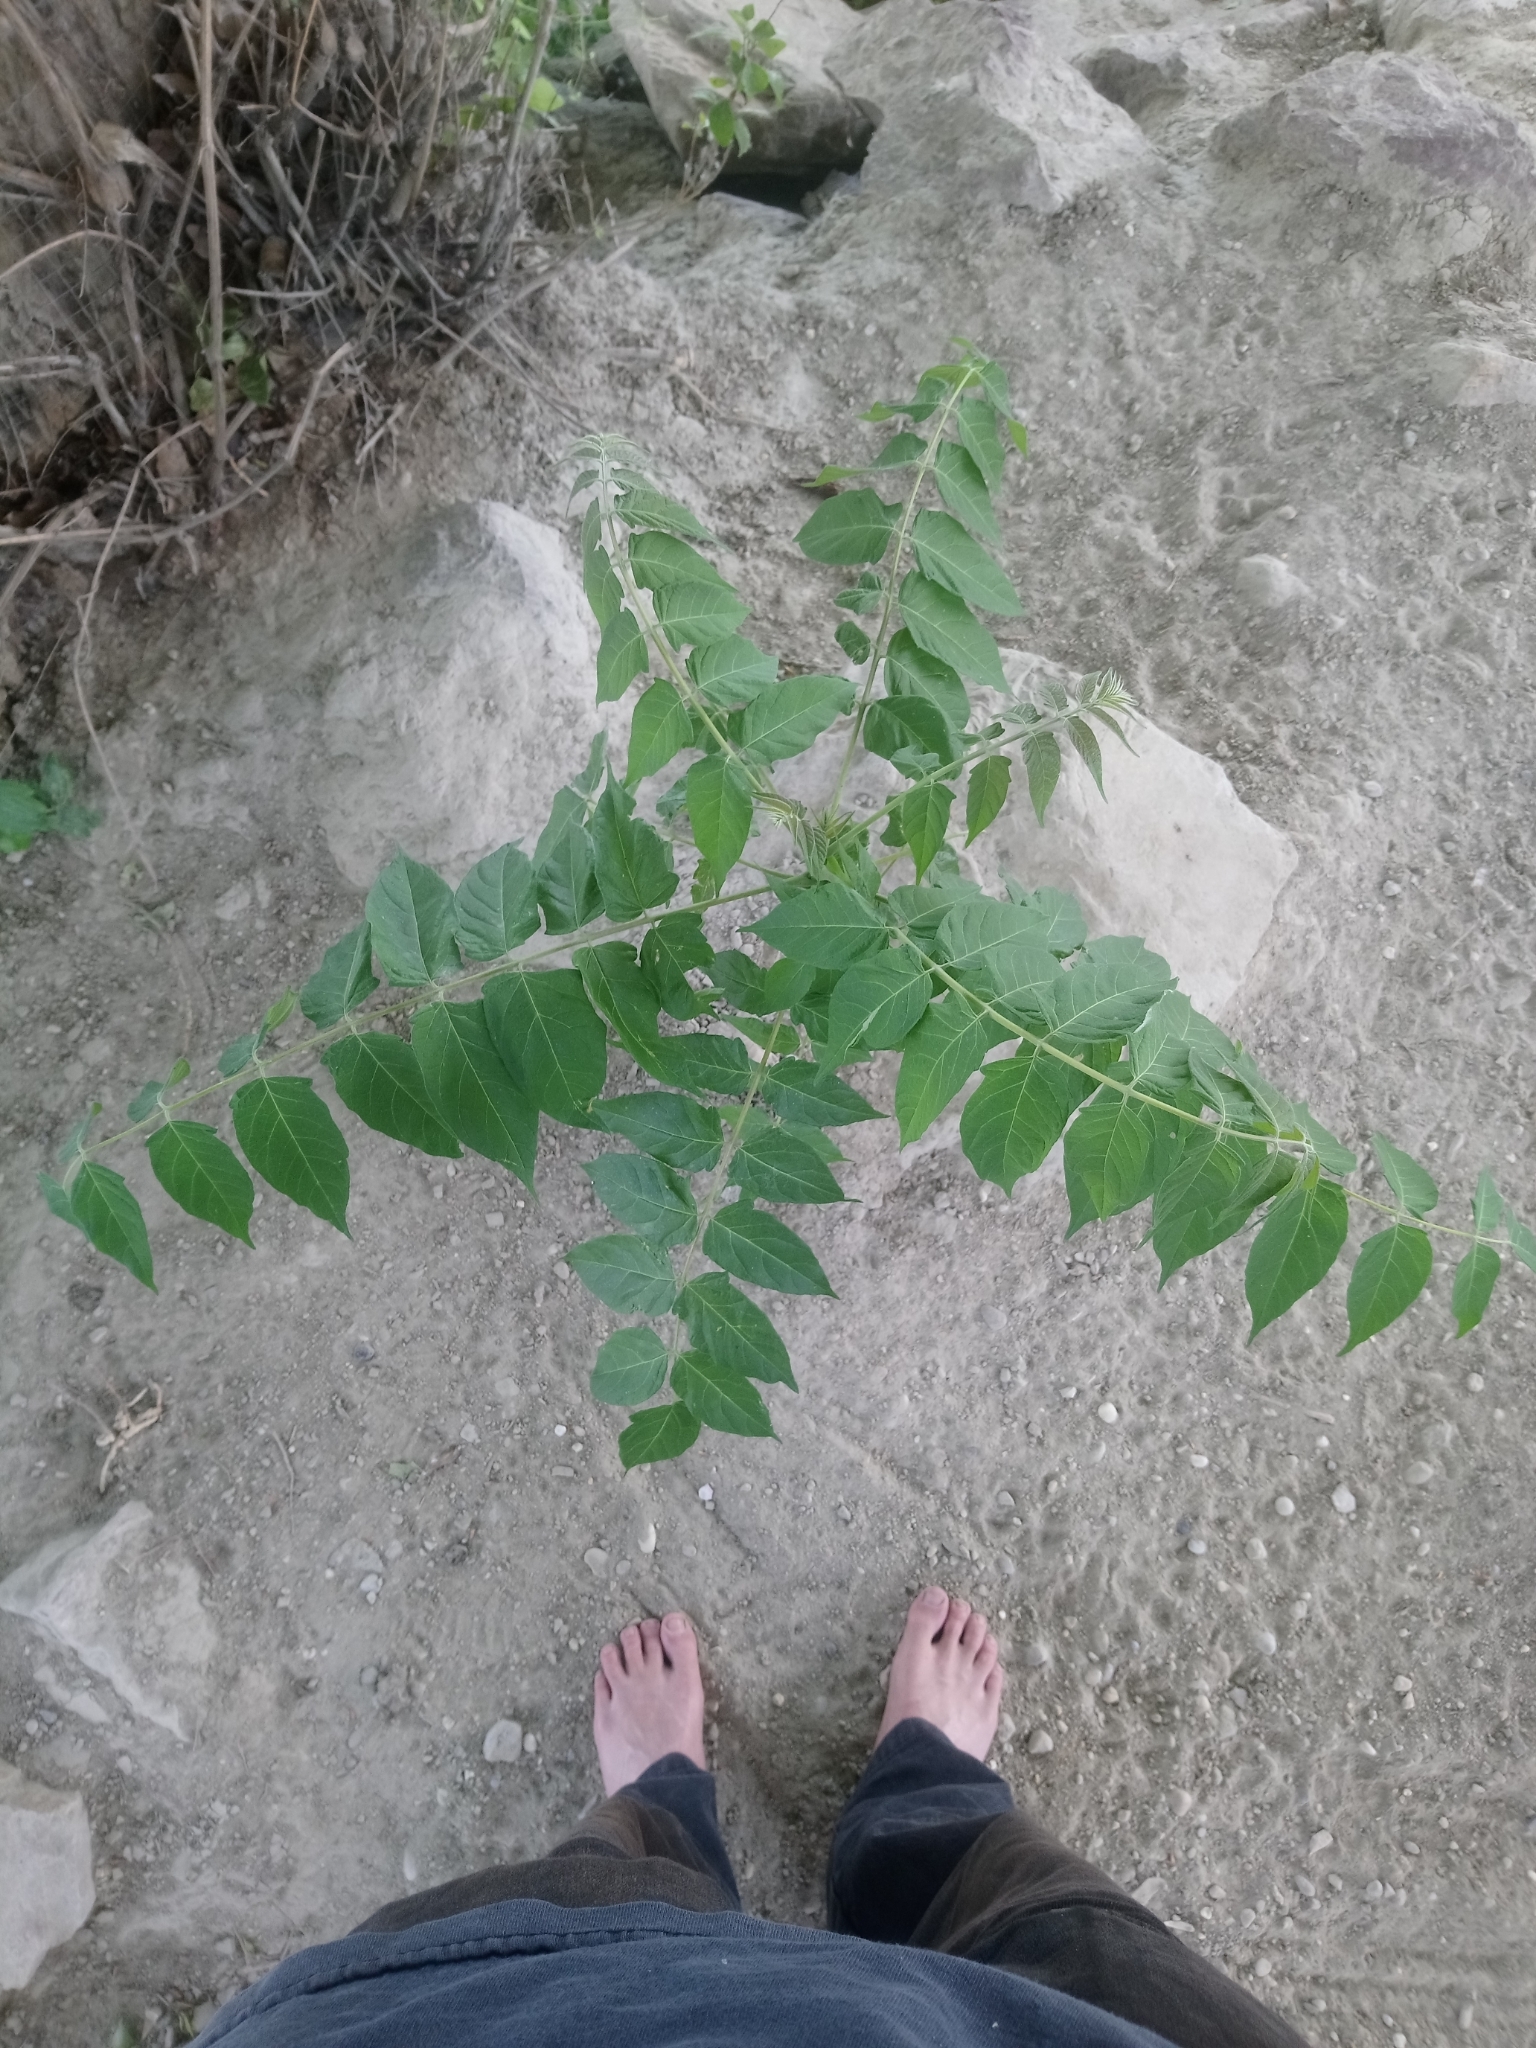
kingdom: Plantae
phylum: Tracheophyta
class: Magnoliopsida
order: Sapindales
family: Simaroubaceae
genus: Ailanthus
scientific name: Ailanthus altissima
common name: Tree-of-heaven
